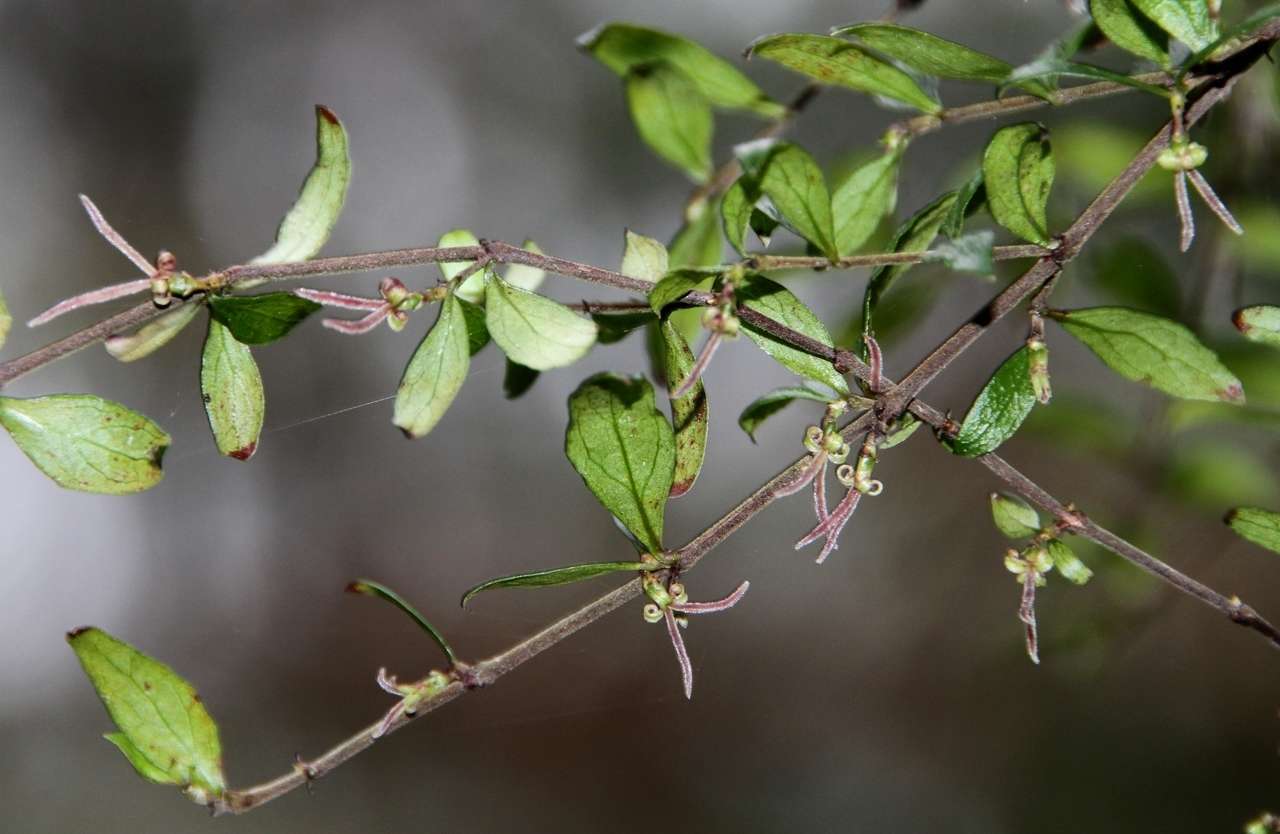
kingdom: Plantae
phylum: Tracheophyta
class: Magnoliopsida
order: Gentianales
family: Rubiaceae
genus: Coprosma
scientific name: Coprosma quadrifida
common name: Prickly currantbush
